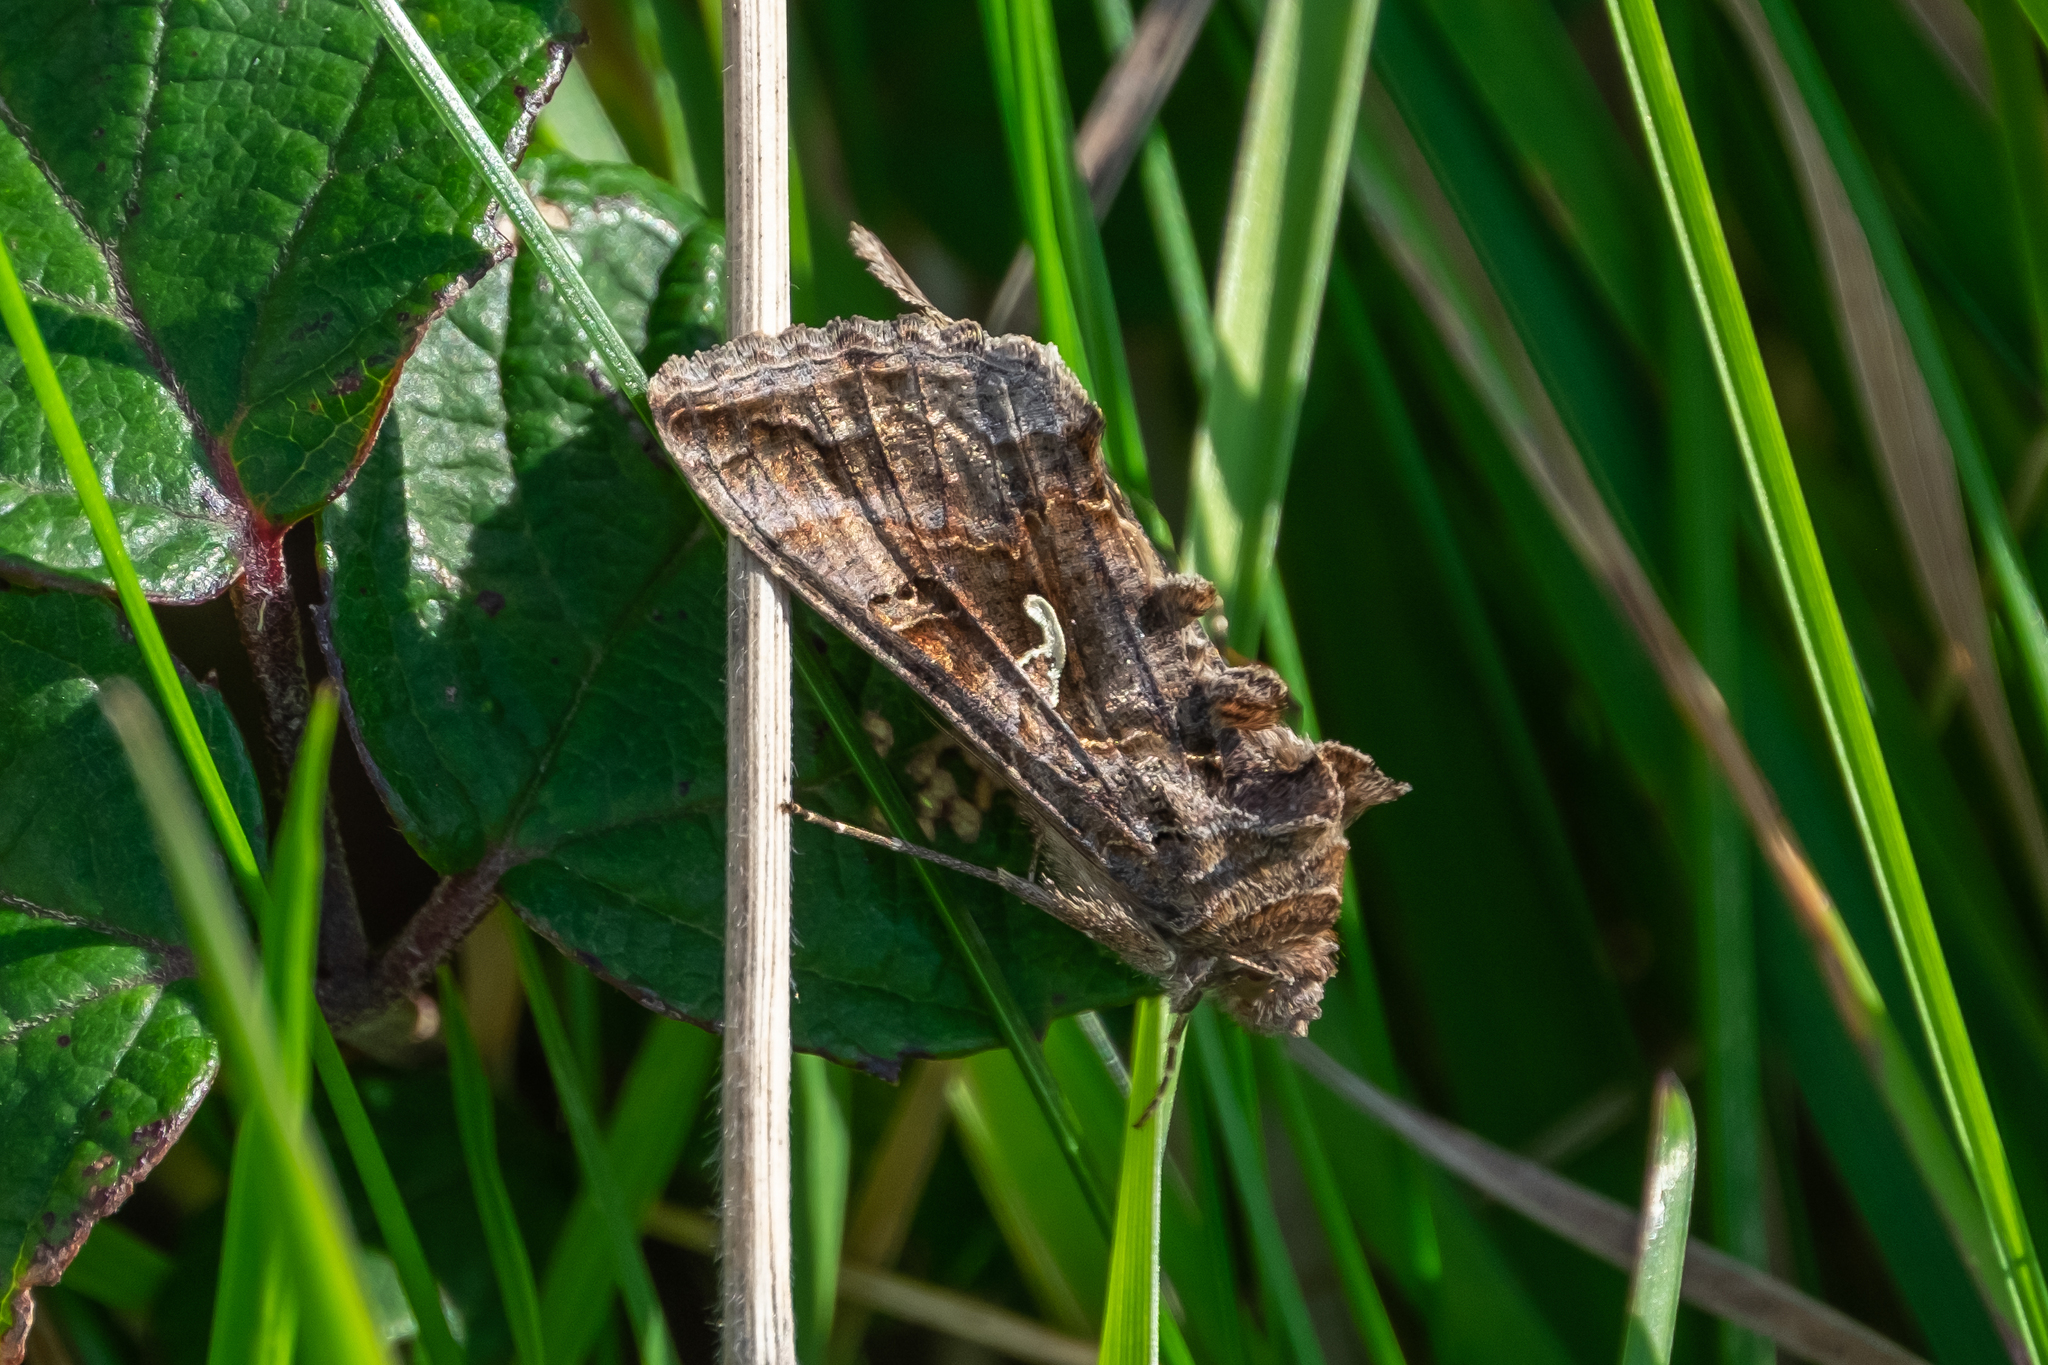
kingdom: Animalia
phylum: Arthropoda
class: Insecta
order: Lepidoptera
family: Noctuidae
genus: Autographa
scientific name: Autographa gamma
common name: Silver y
